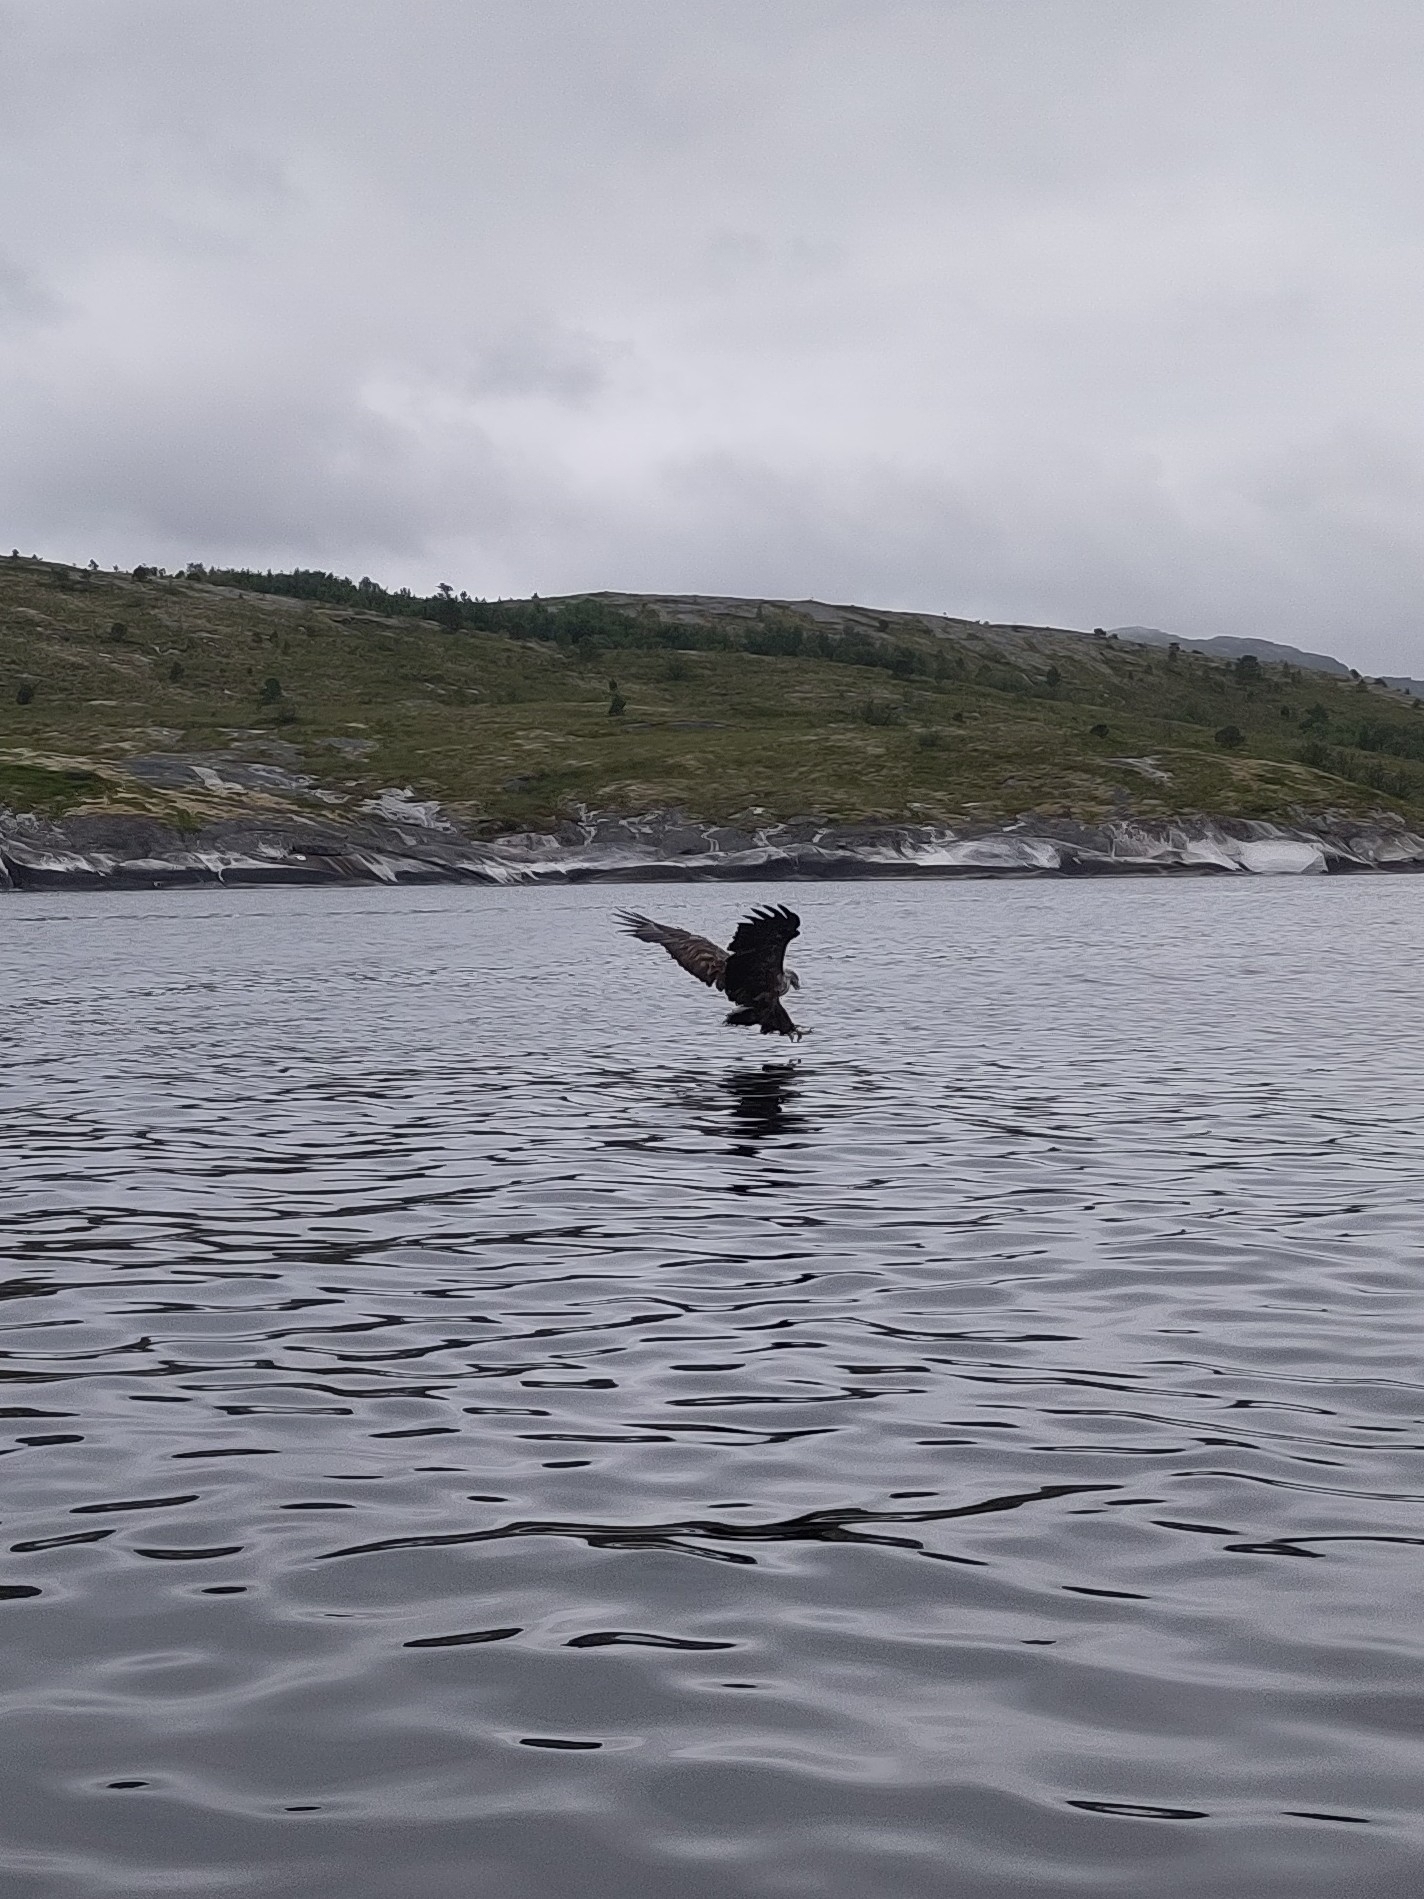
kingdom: Animalia
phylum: Chordata
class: Aves
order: Accipitriformes
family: Accipitridae
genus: Haliaeetus
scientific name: Haliaeetus albicilla
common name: White-tailed eagle
